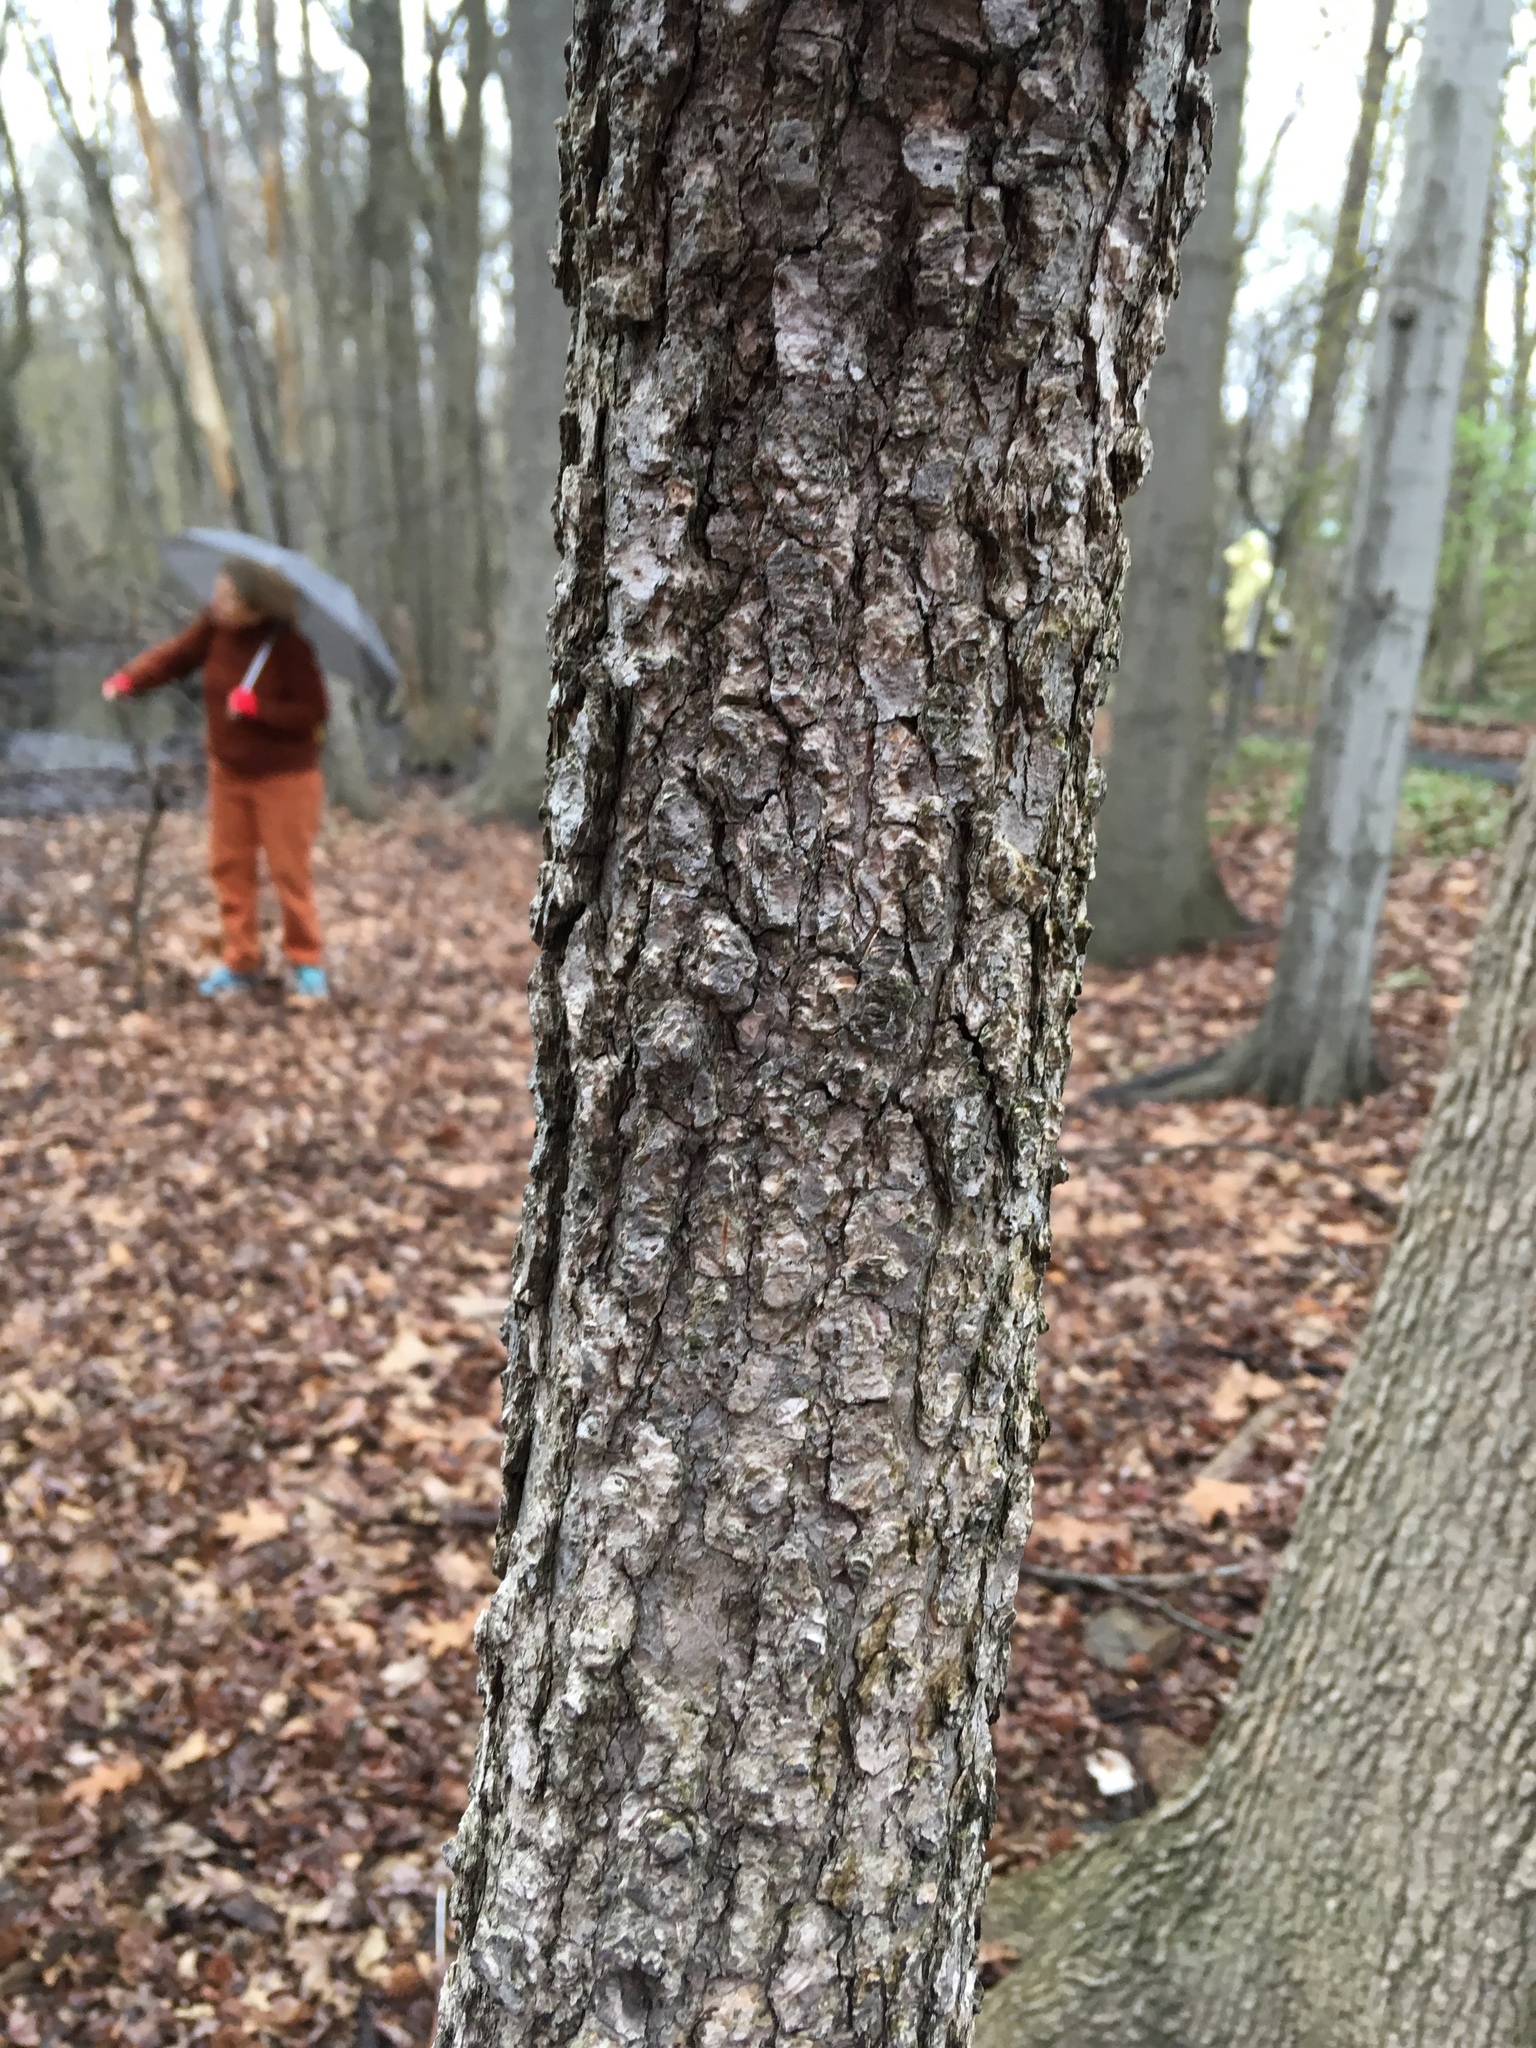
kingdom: Plantae
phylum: Tracheophyta
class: Magnoliopsida
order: Saxifragales
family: Altingiaceae
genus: Liquidambar
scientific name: Liquidambar styraciflua
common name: Sweet gum
